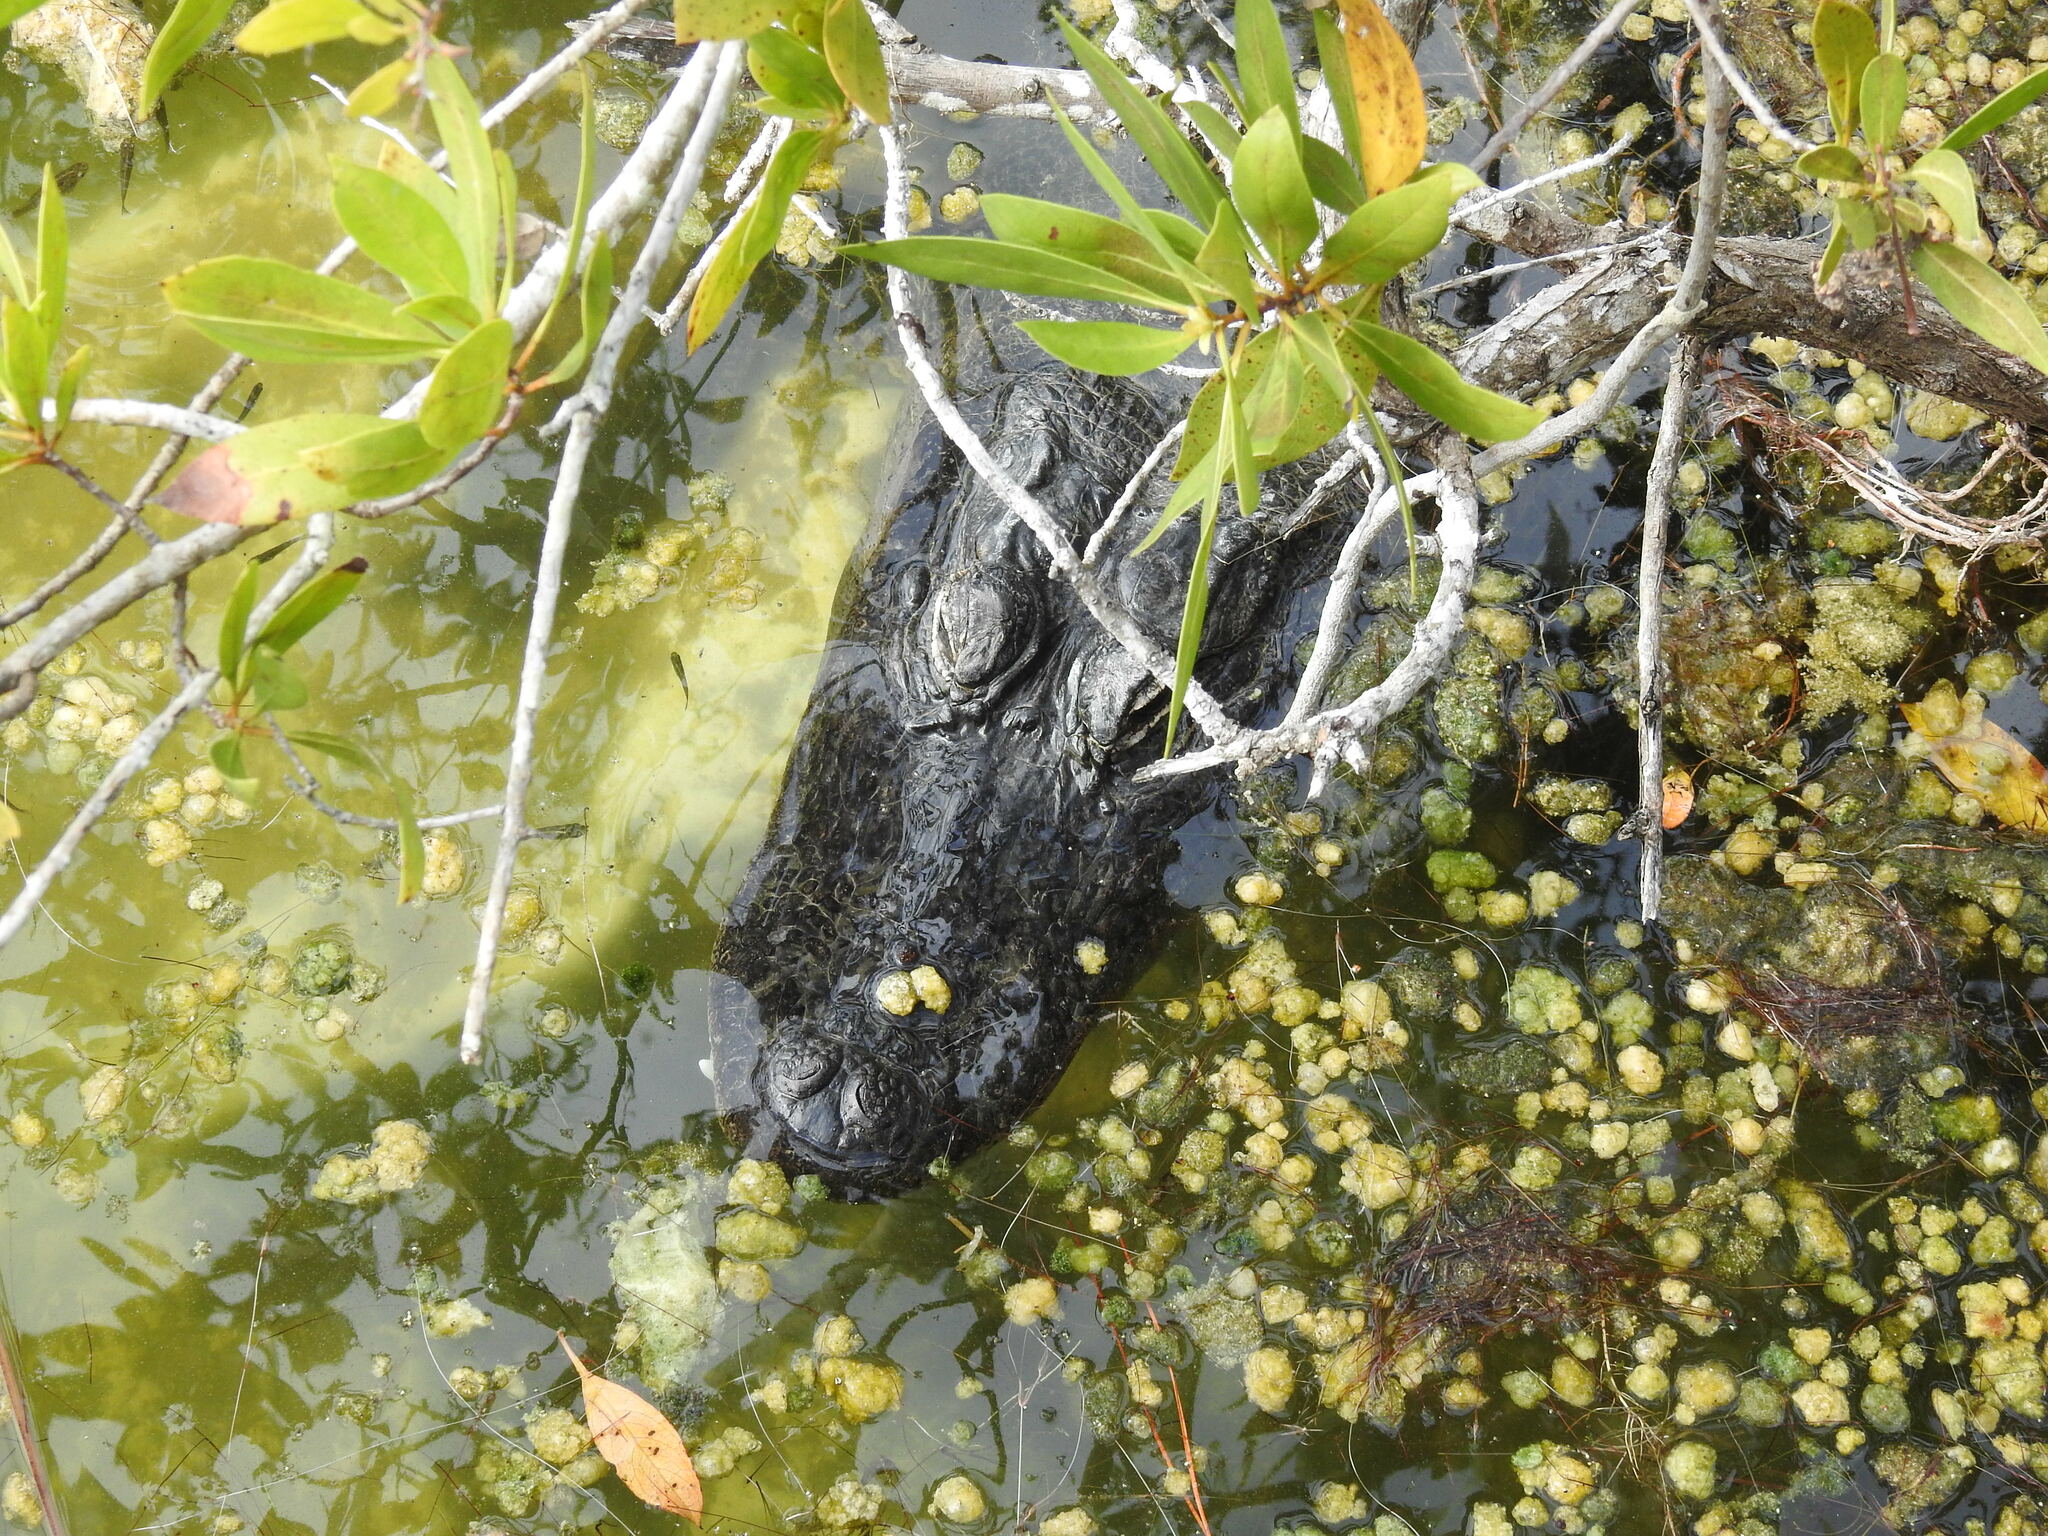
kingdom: Animalia
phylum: Chordata
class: Crocodylia
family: Alligatoridae
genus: Alligator
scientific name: Alligator mississippiensis
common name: American alligator
